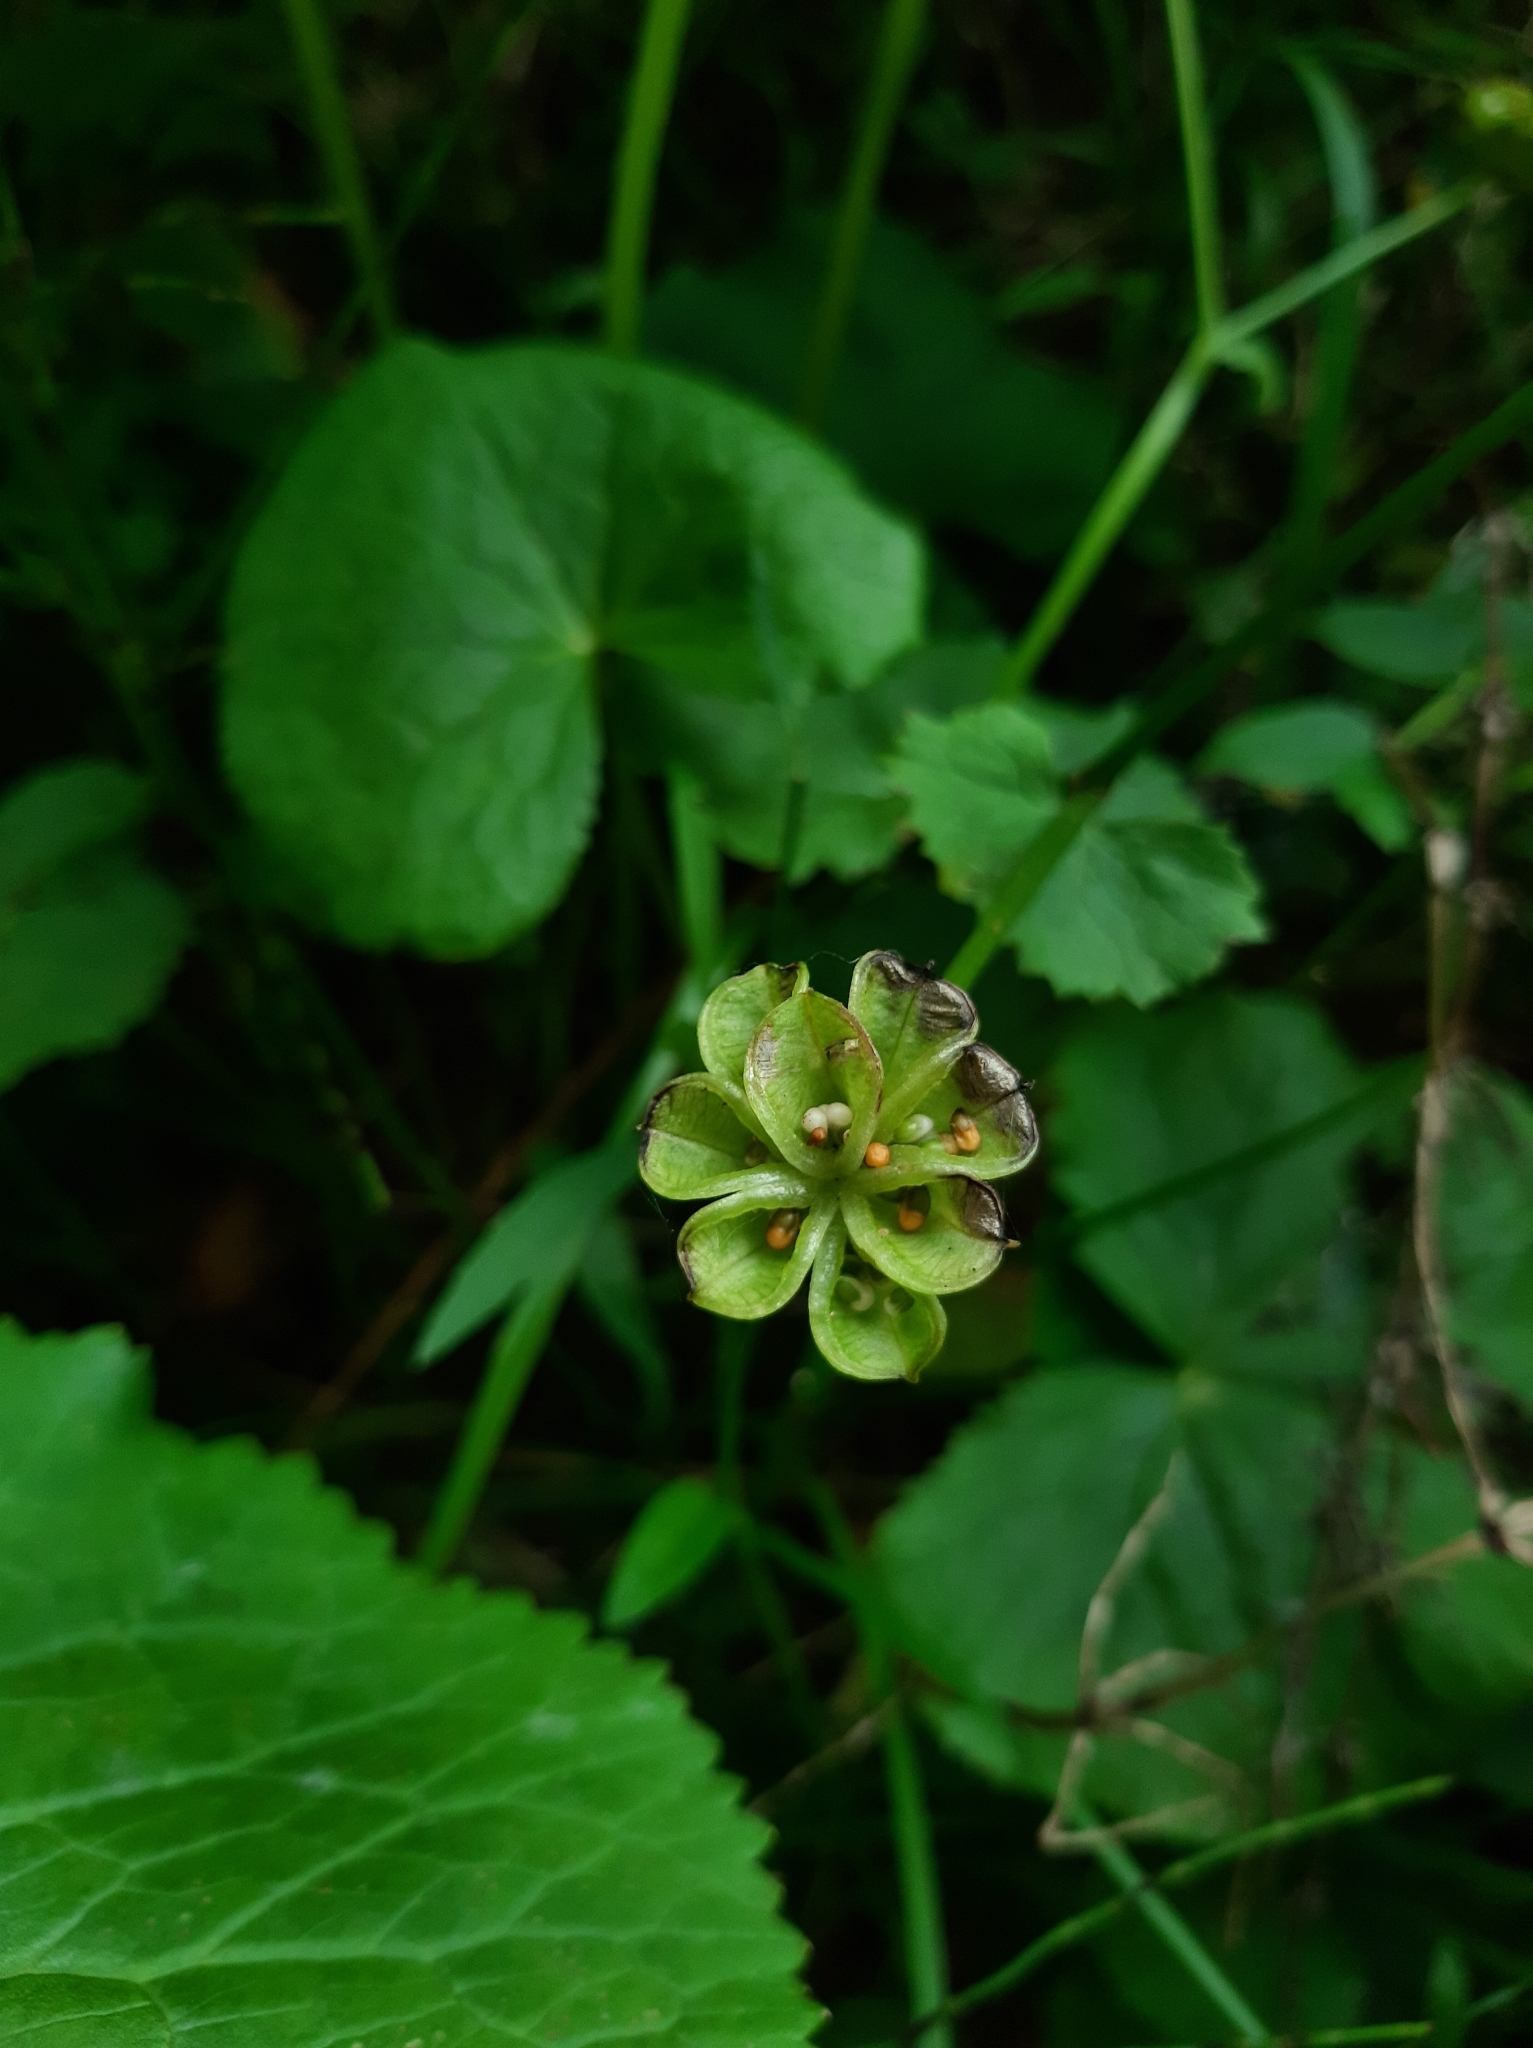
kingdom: Plantae
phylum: Tracheophyta
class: Magnoliopsida
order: Ranunculales
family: Ranunculaceae
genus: Caltha
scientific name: Caltha palustris
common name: Marsh marigold
